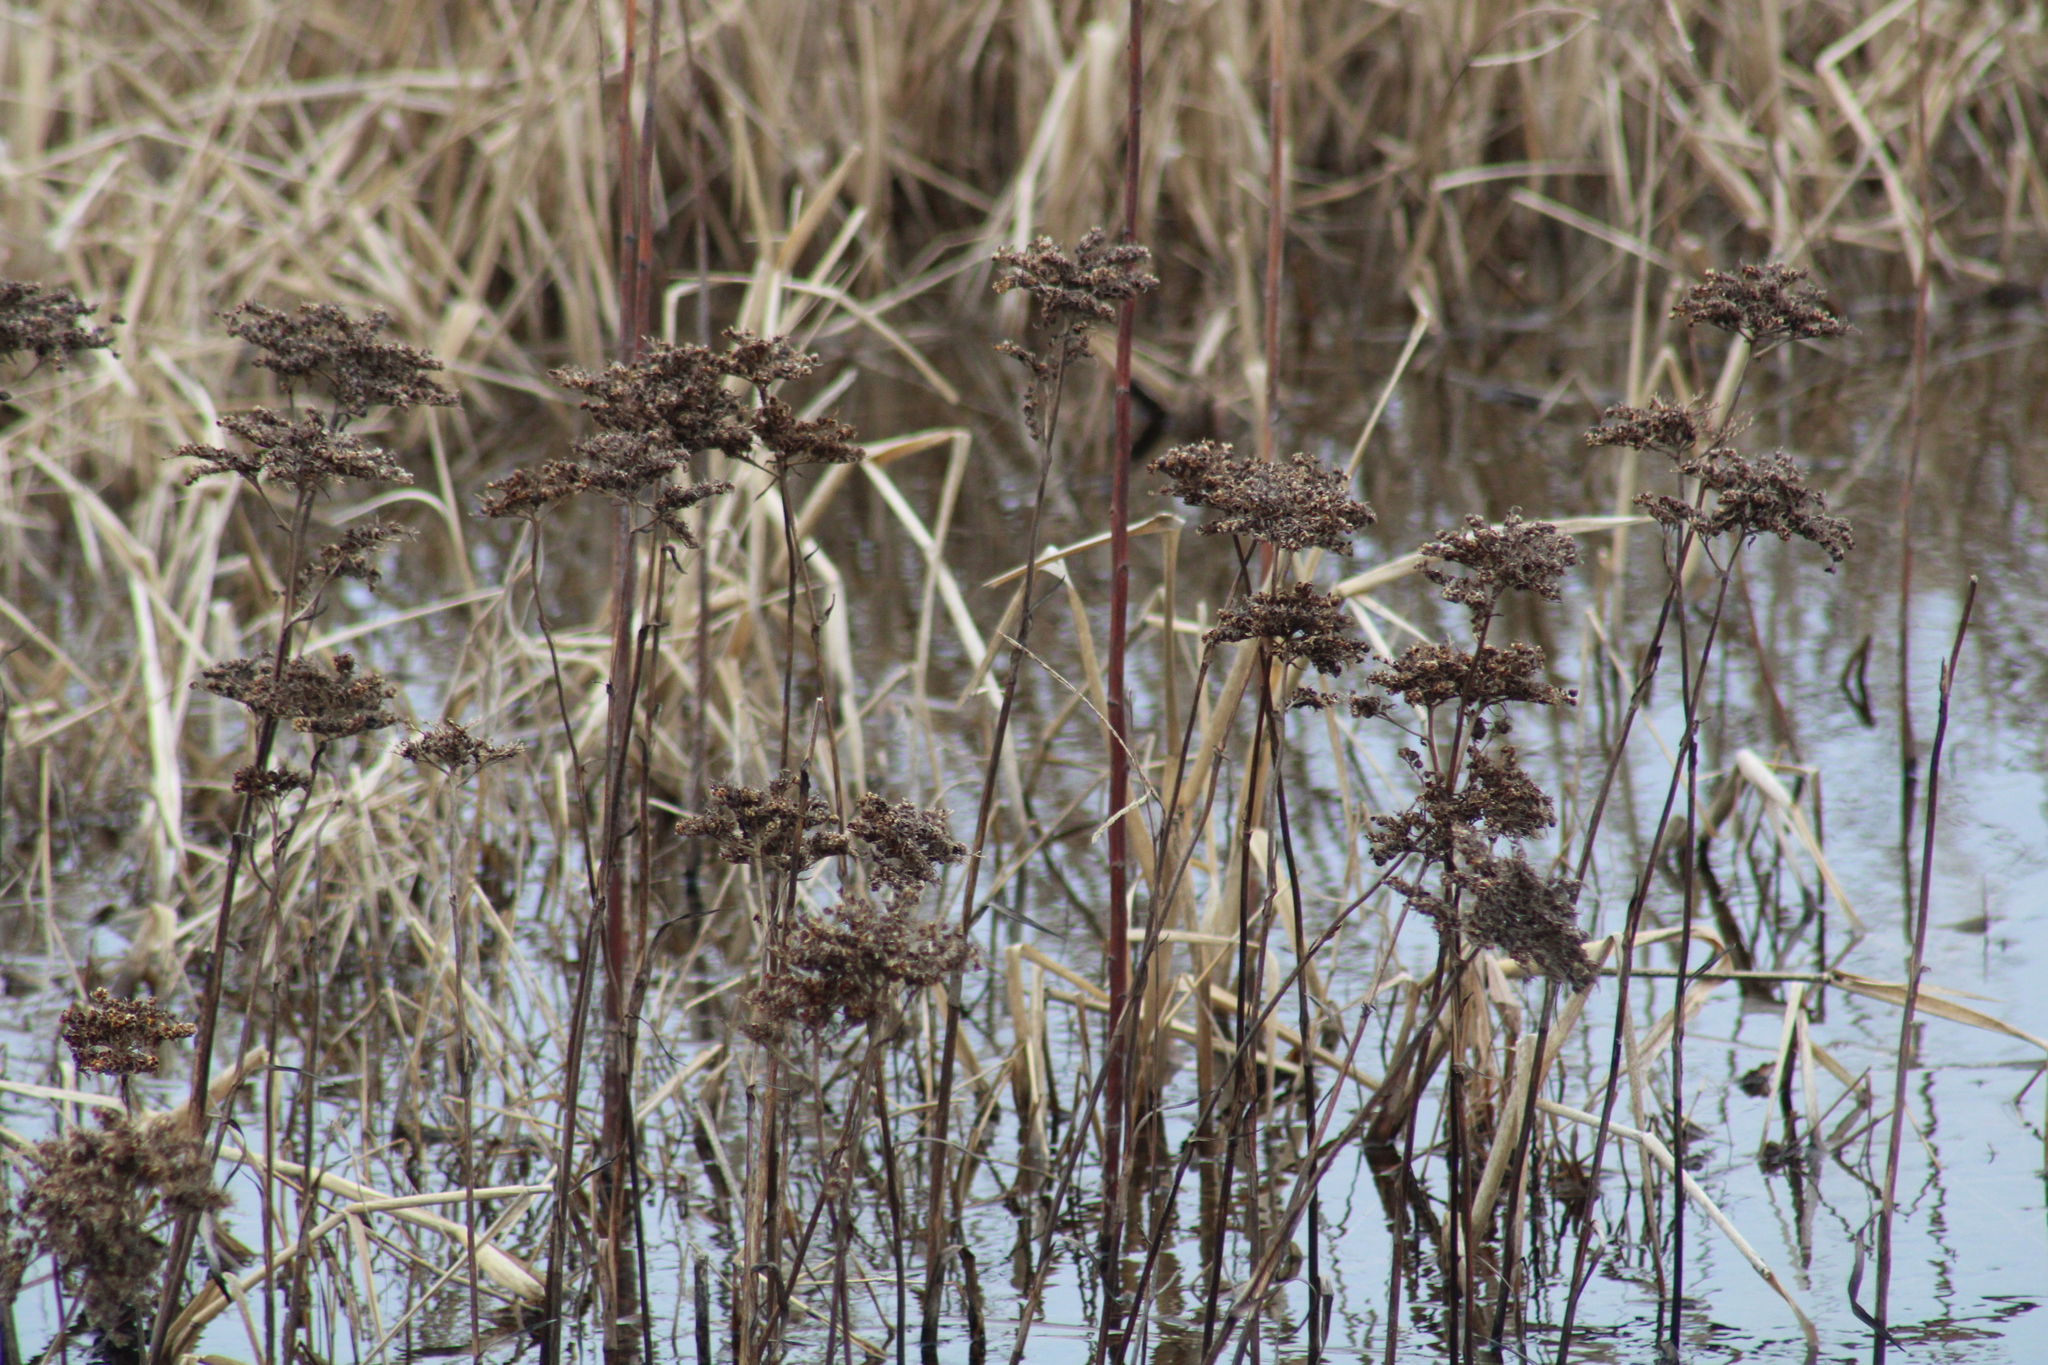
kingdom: Plantae
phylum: Tracheophyta
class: Liliopsida
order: Commelinales
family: Haemodoraceae
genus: Lachnanthes
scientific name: Lachnanthes caroliana
